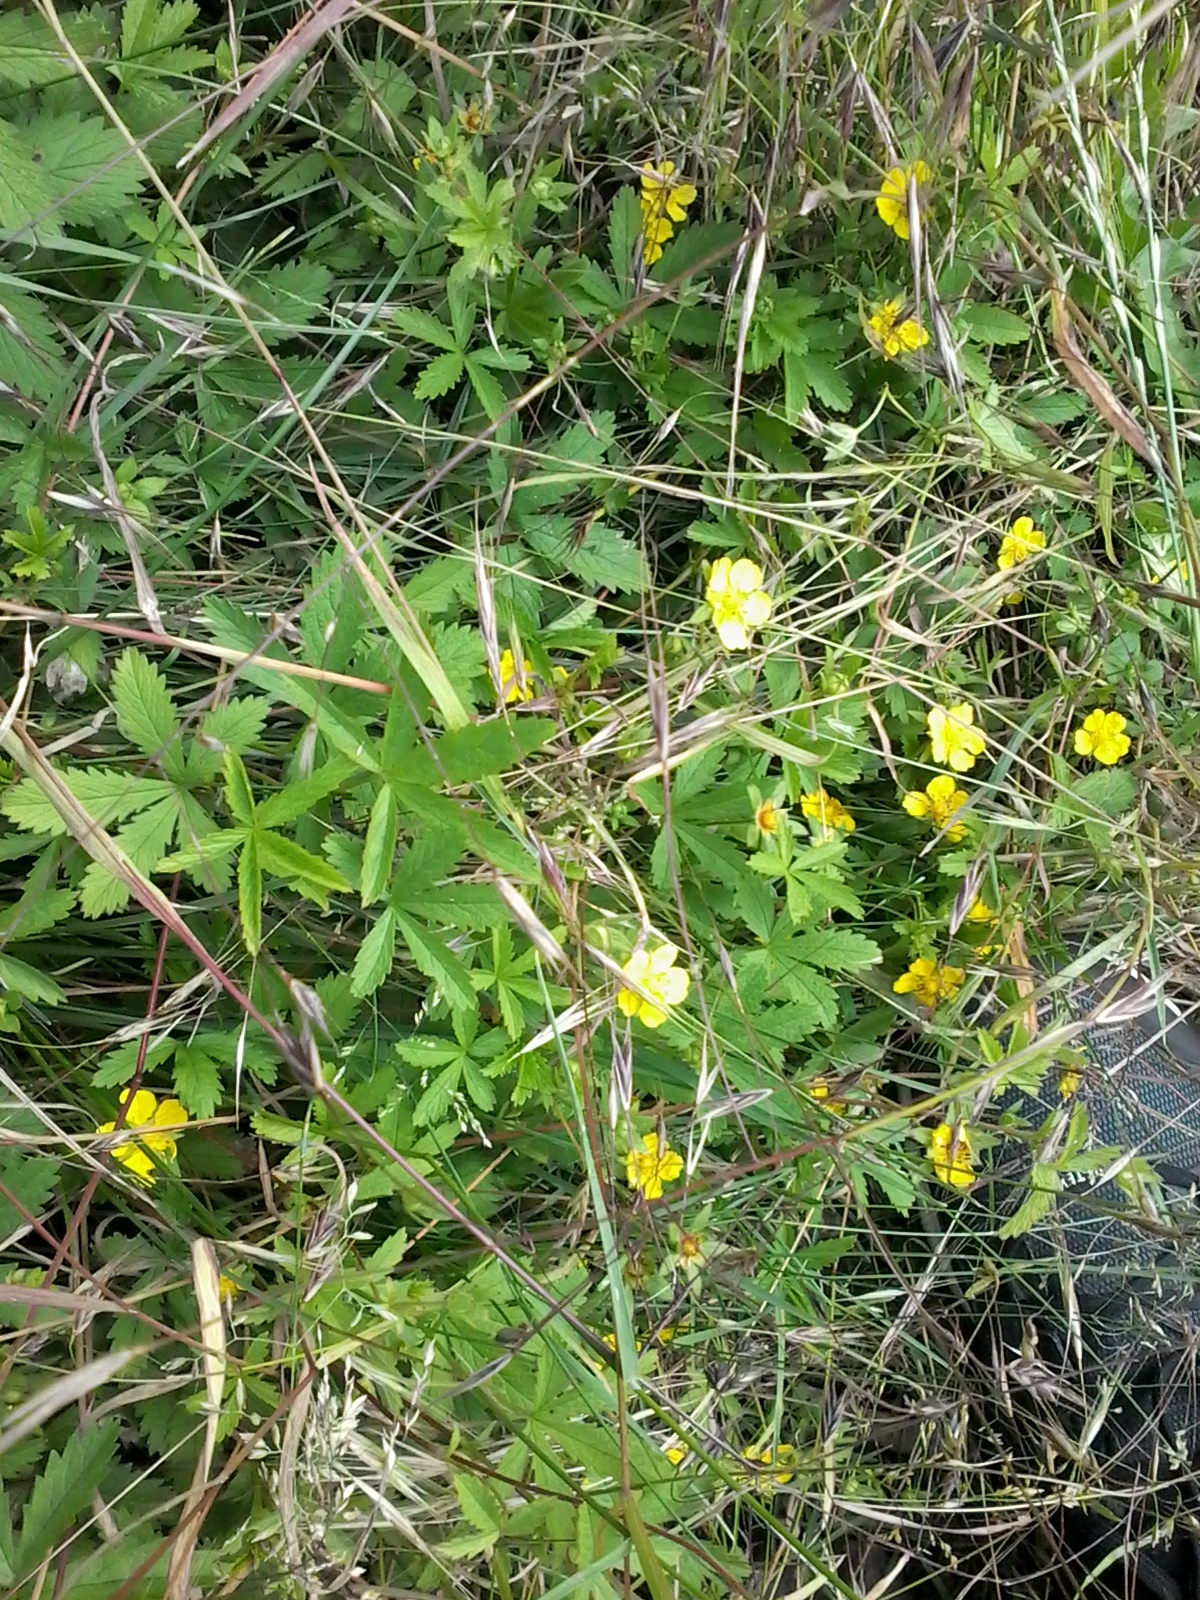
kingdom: Plantae
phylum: Tracheophyta
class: Magnoliopsida
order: Rosales
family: Rosaceae
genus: Potentilla
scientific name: Potentilla reptans
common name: Creeping cinquefoil
